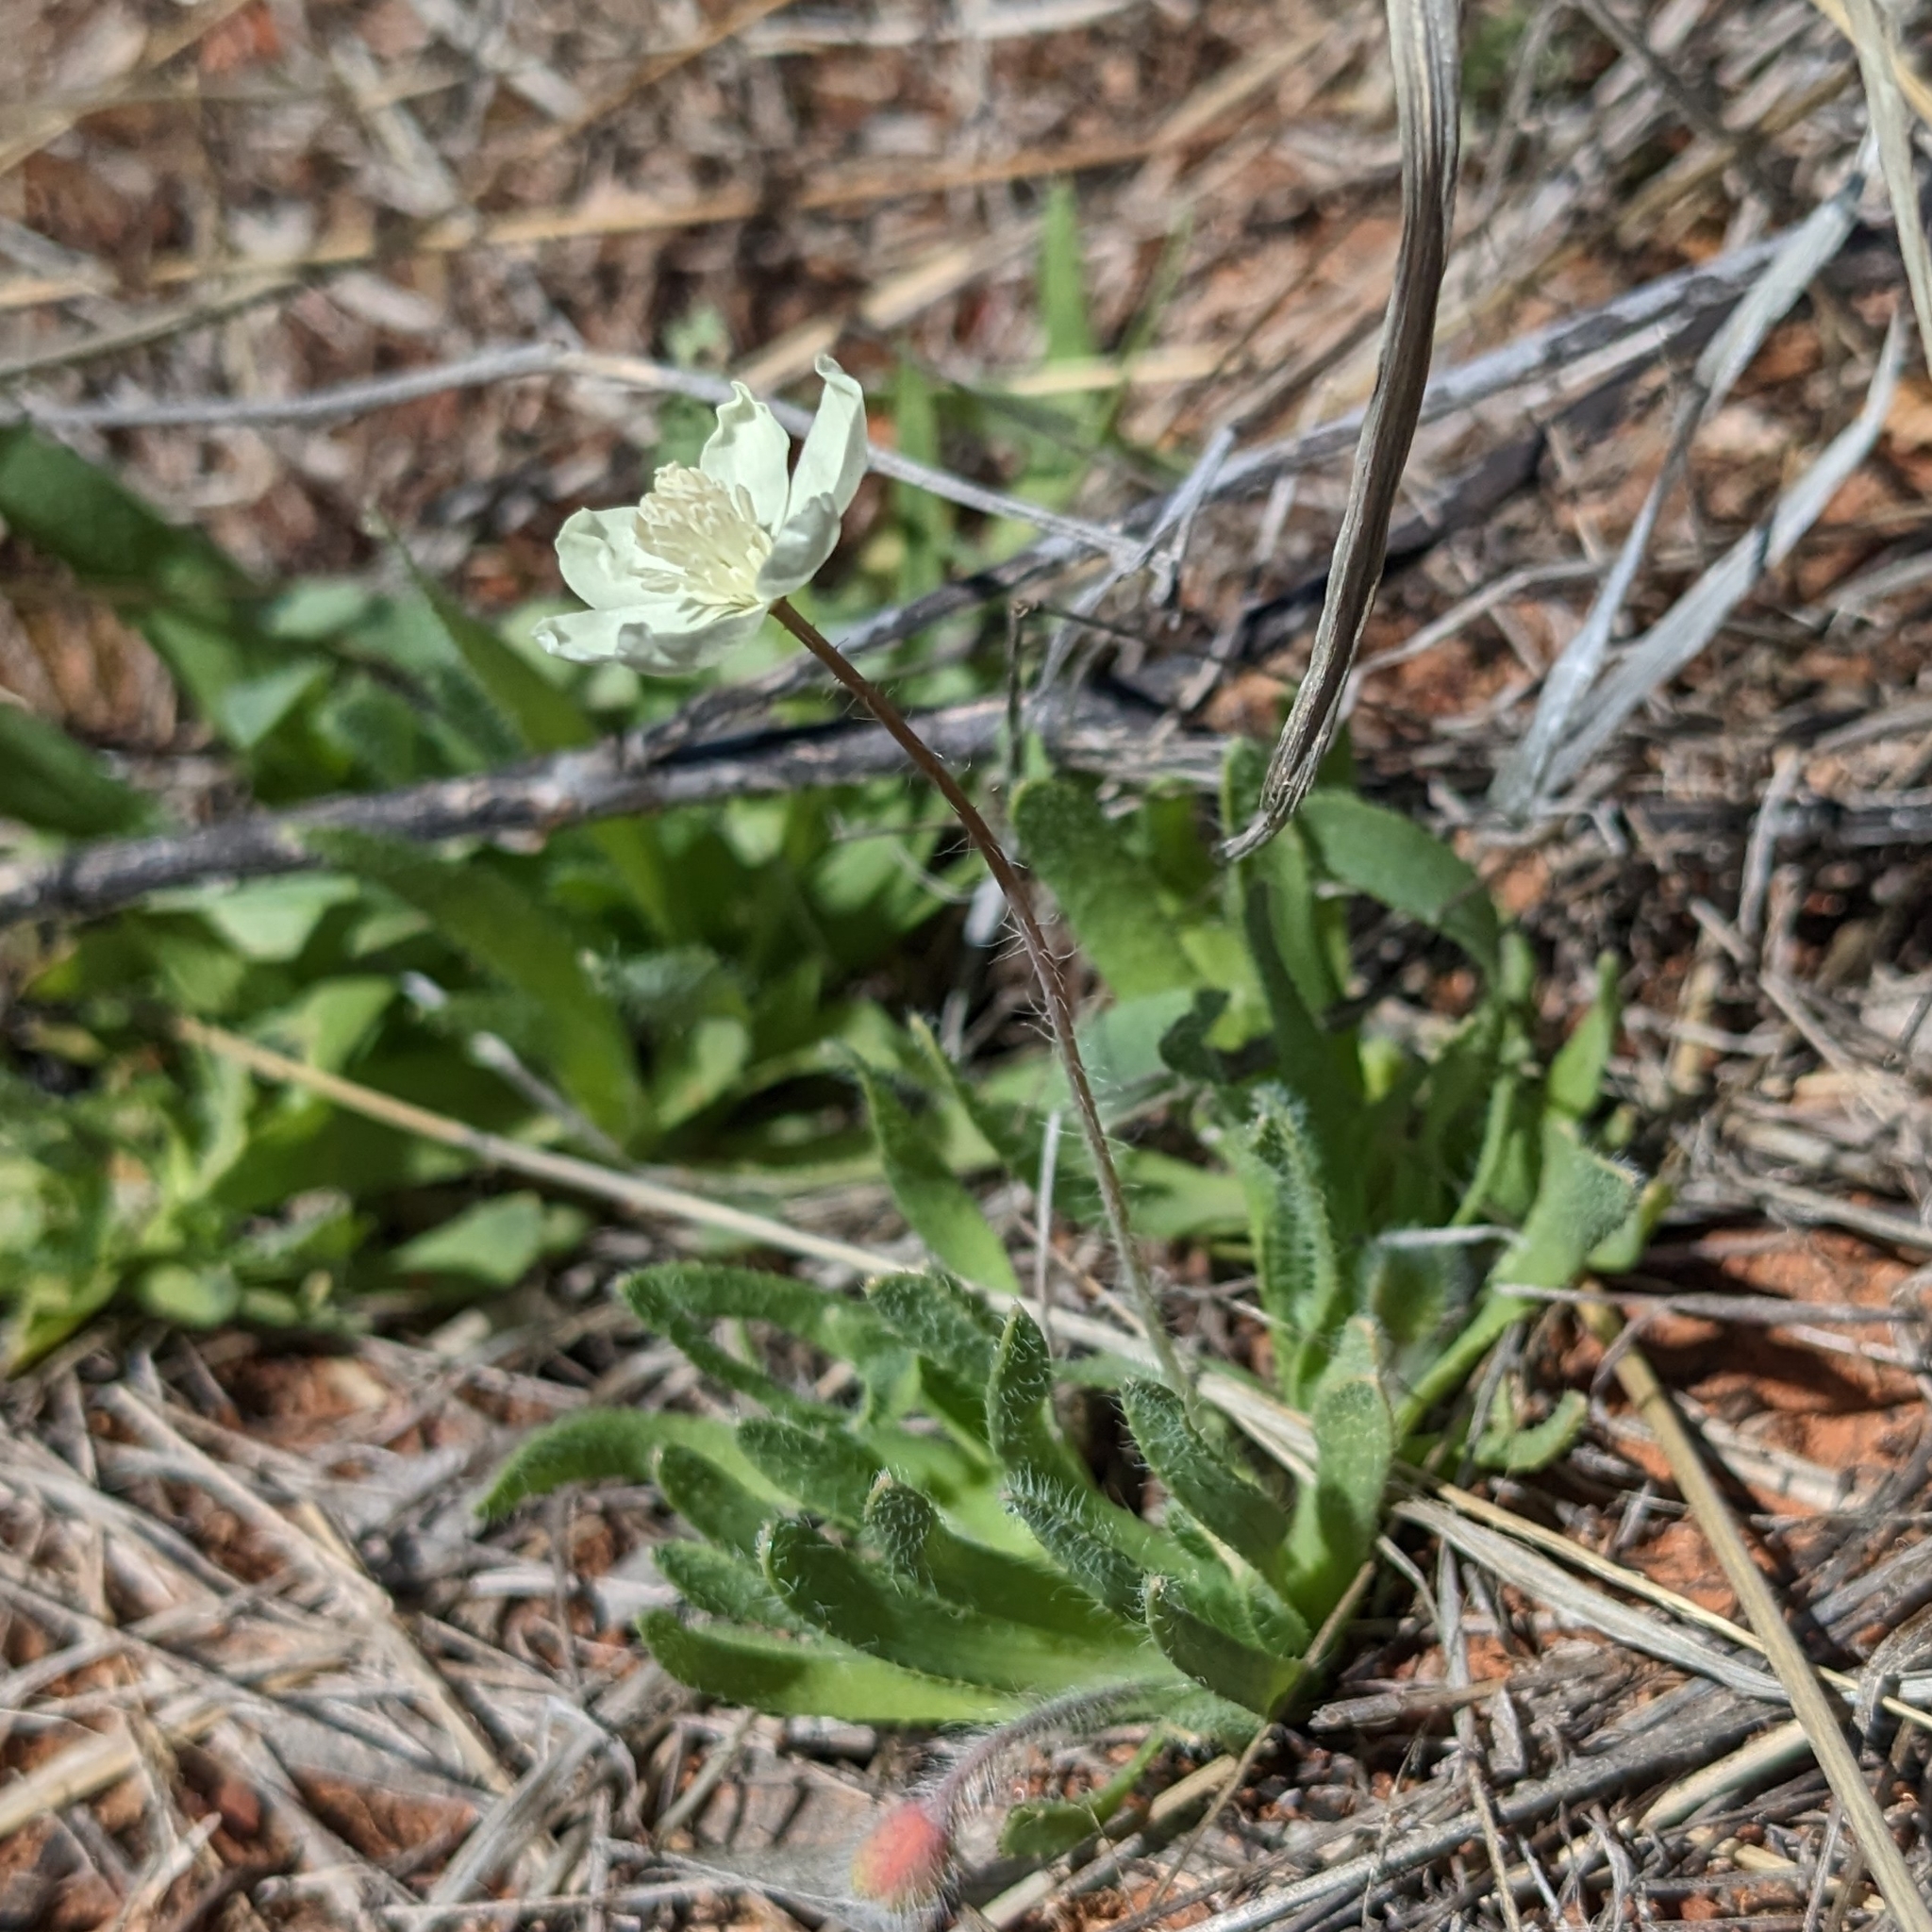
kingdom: Plantae
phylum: Tracheophyta
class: Magnoliopsida
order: Ranunculales
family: Papaveraceae
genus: Platystemon
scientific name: Platystemon californicus
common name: Cream-cups
